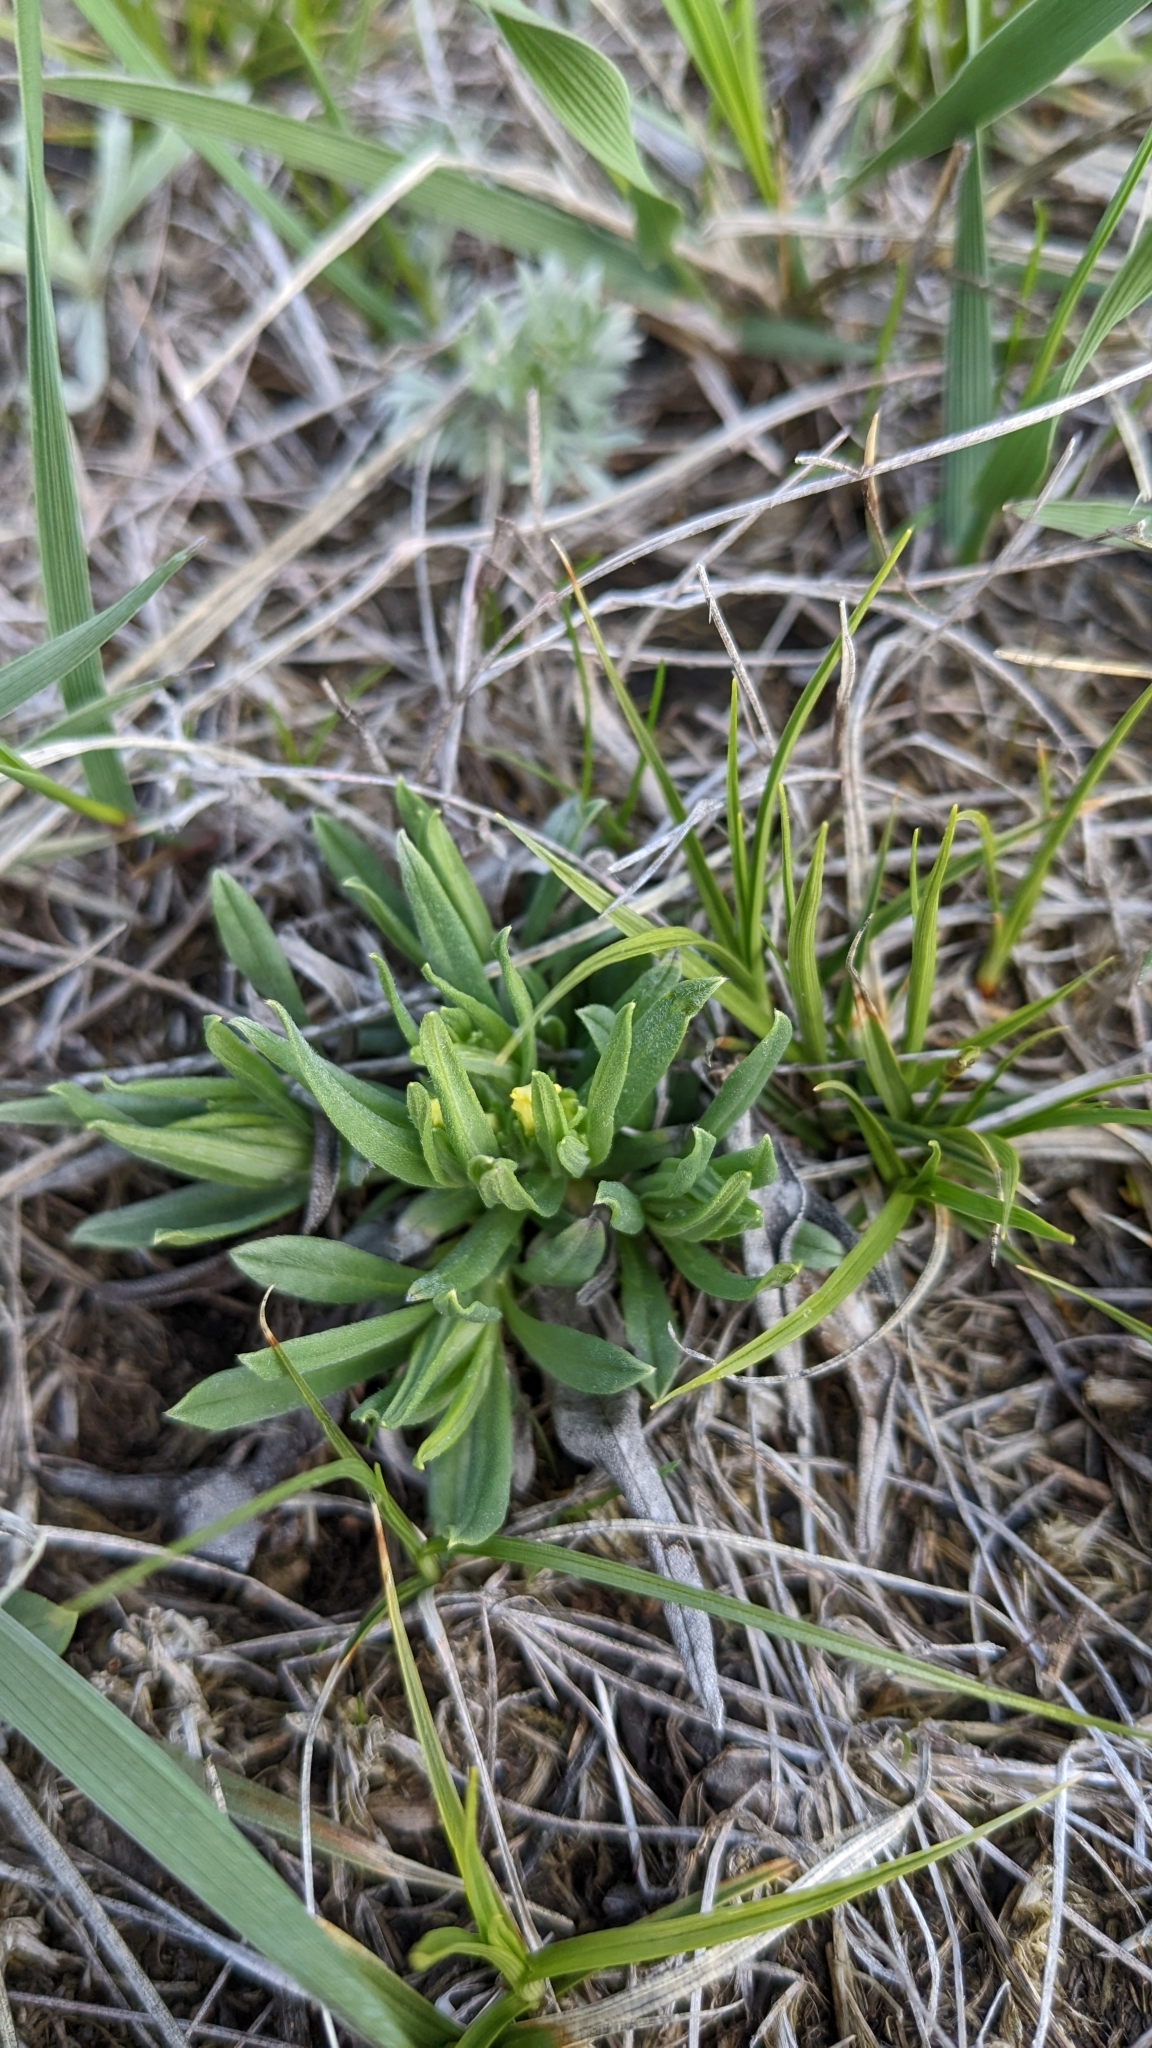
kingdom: Plantae
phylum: Tracheophyta
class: Magnoliopsida
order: Boraginales
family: Boraginaceae
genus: Lithospermum
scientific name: Lithospermum incisum
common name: Fringed gromwell
